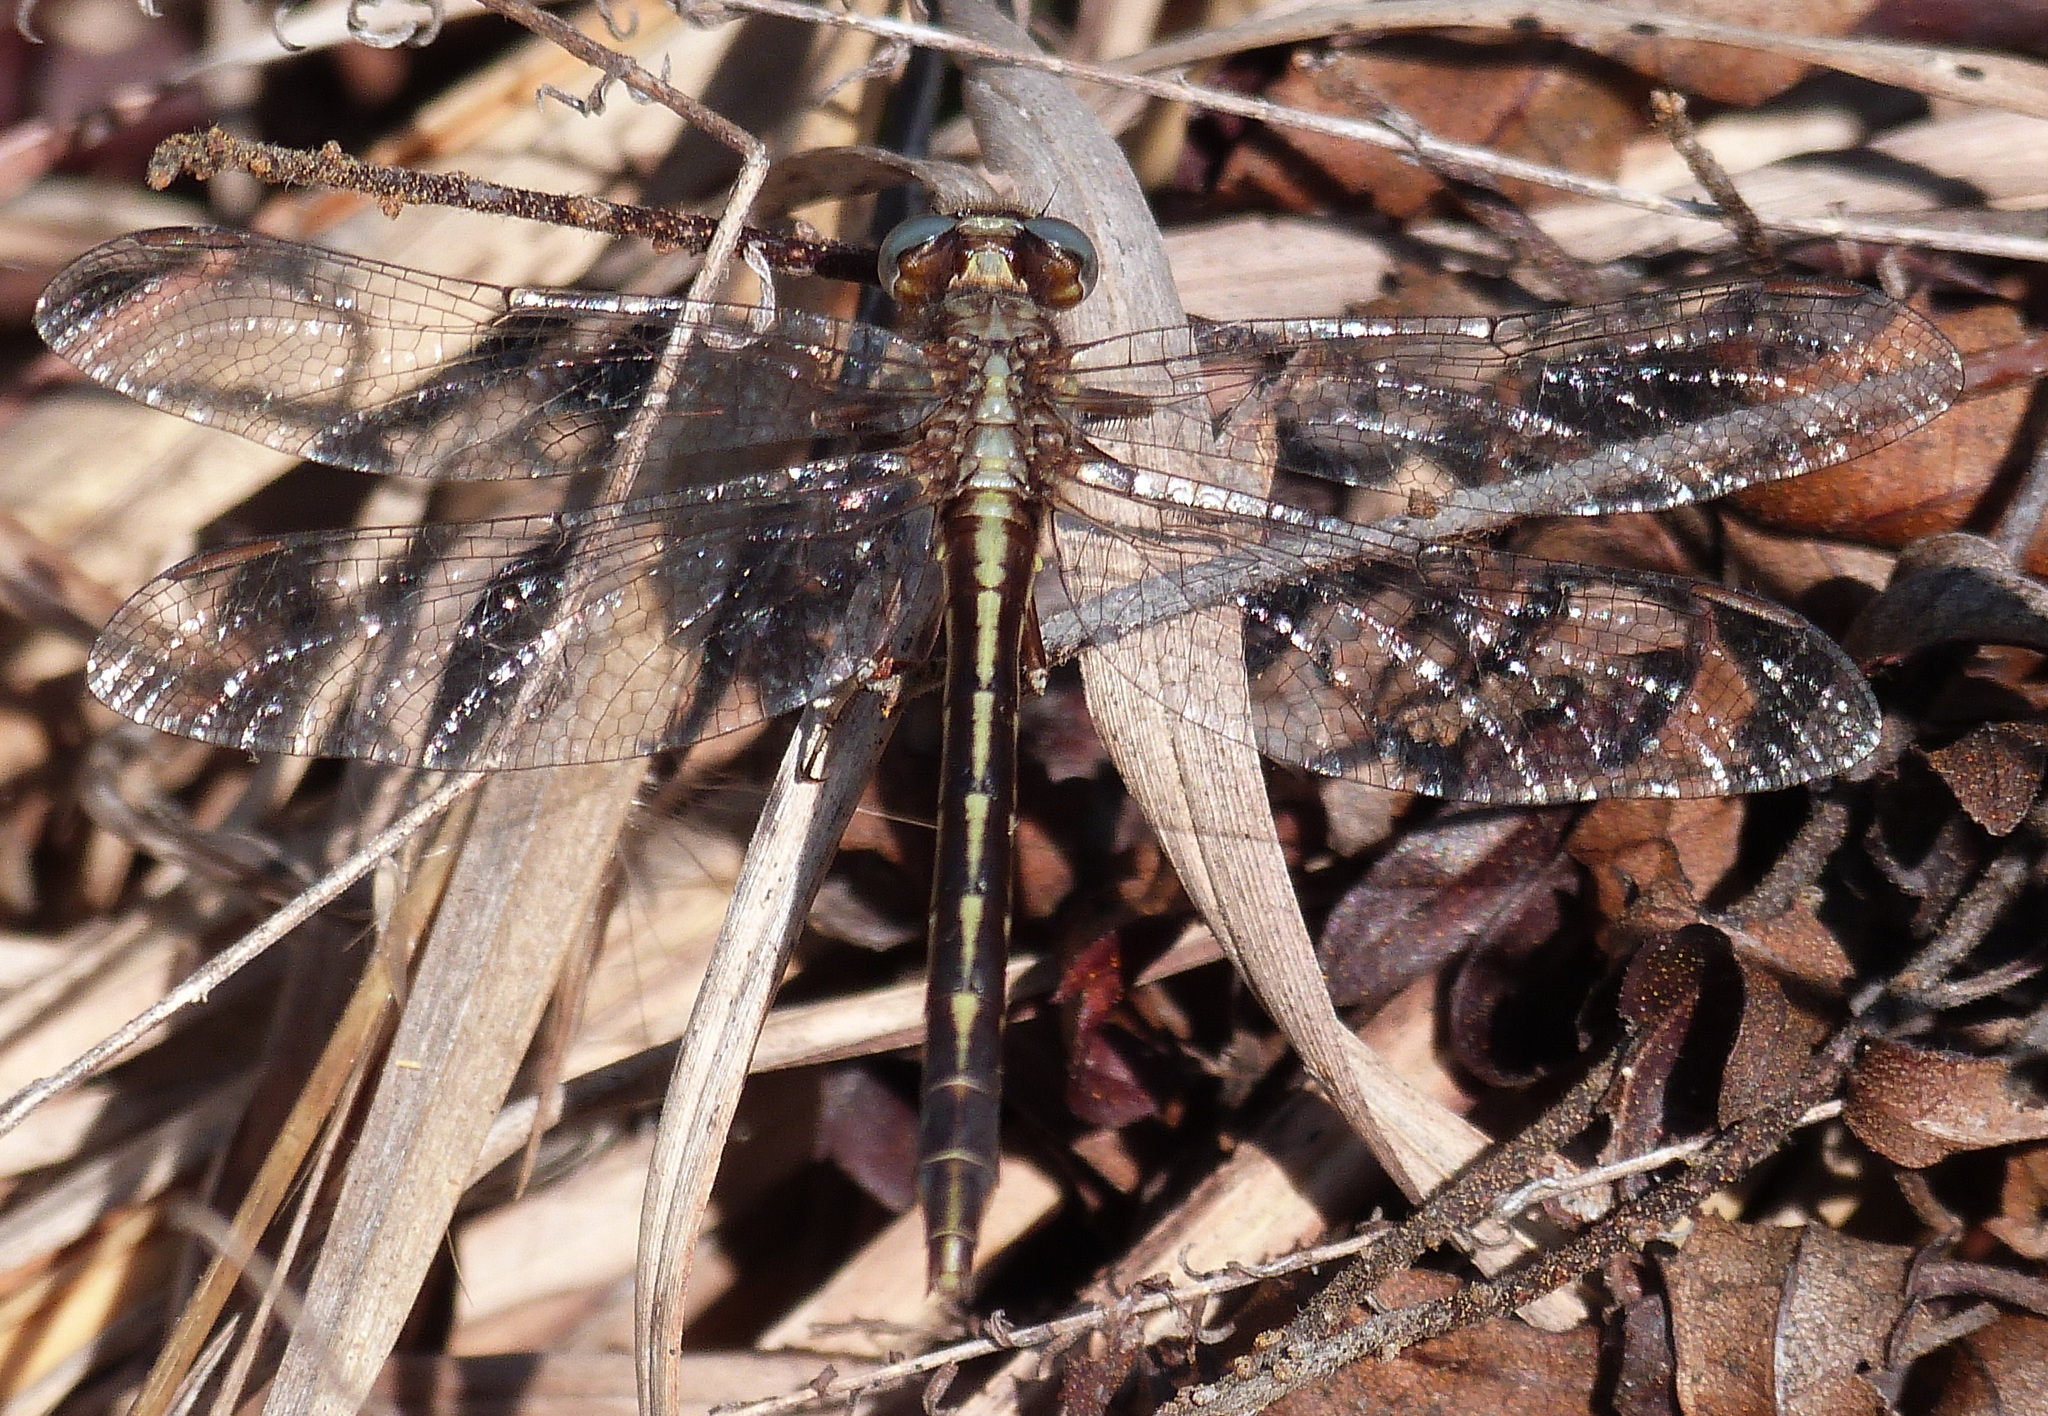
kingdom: Animalia
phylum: Arthropoda
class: Insecta
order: Odonata
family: Gomphidae
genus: Phanogomphus
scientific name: Phanogomphus exilis
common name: Lancet clubtail
